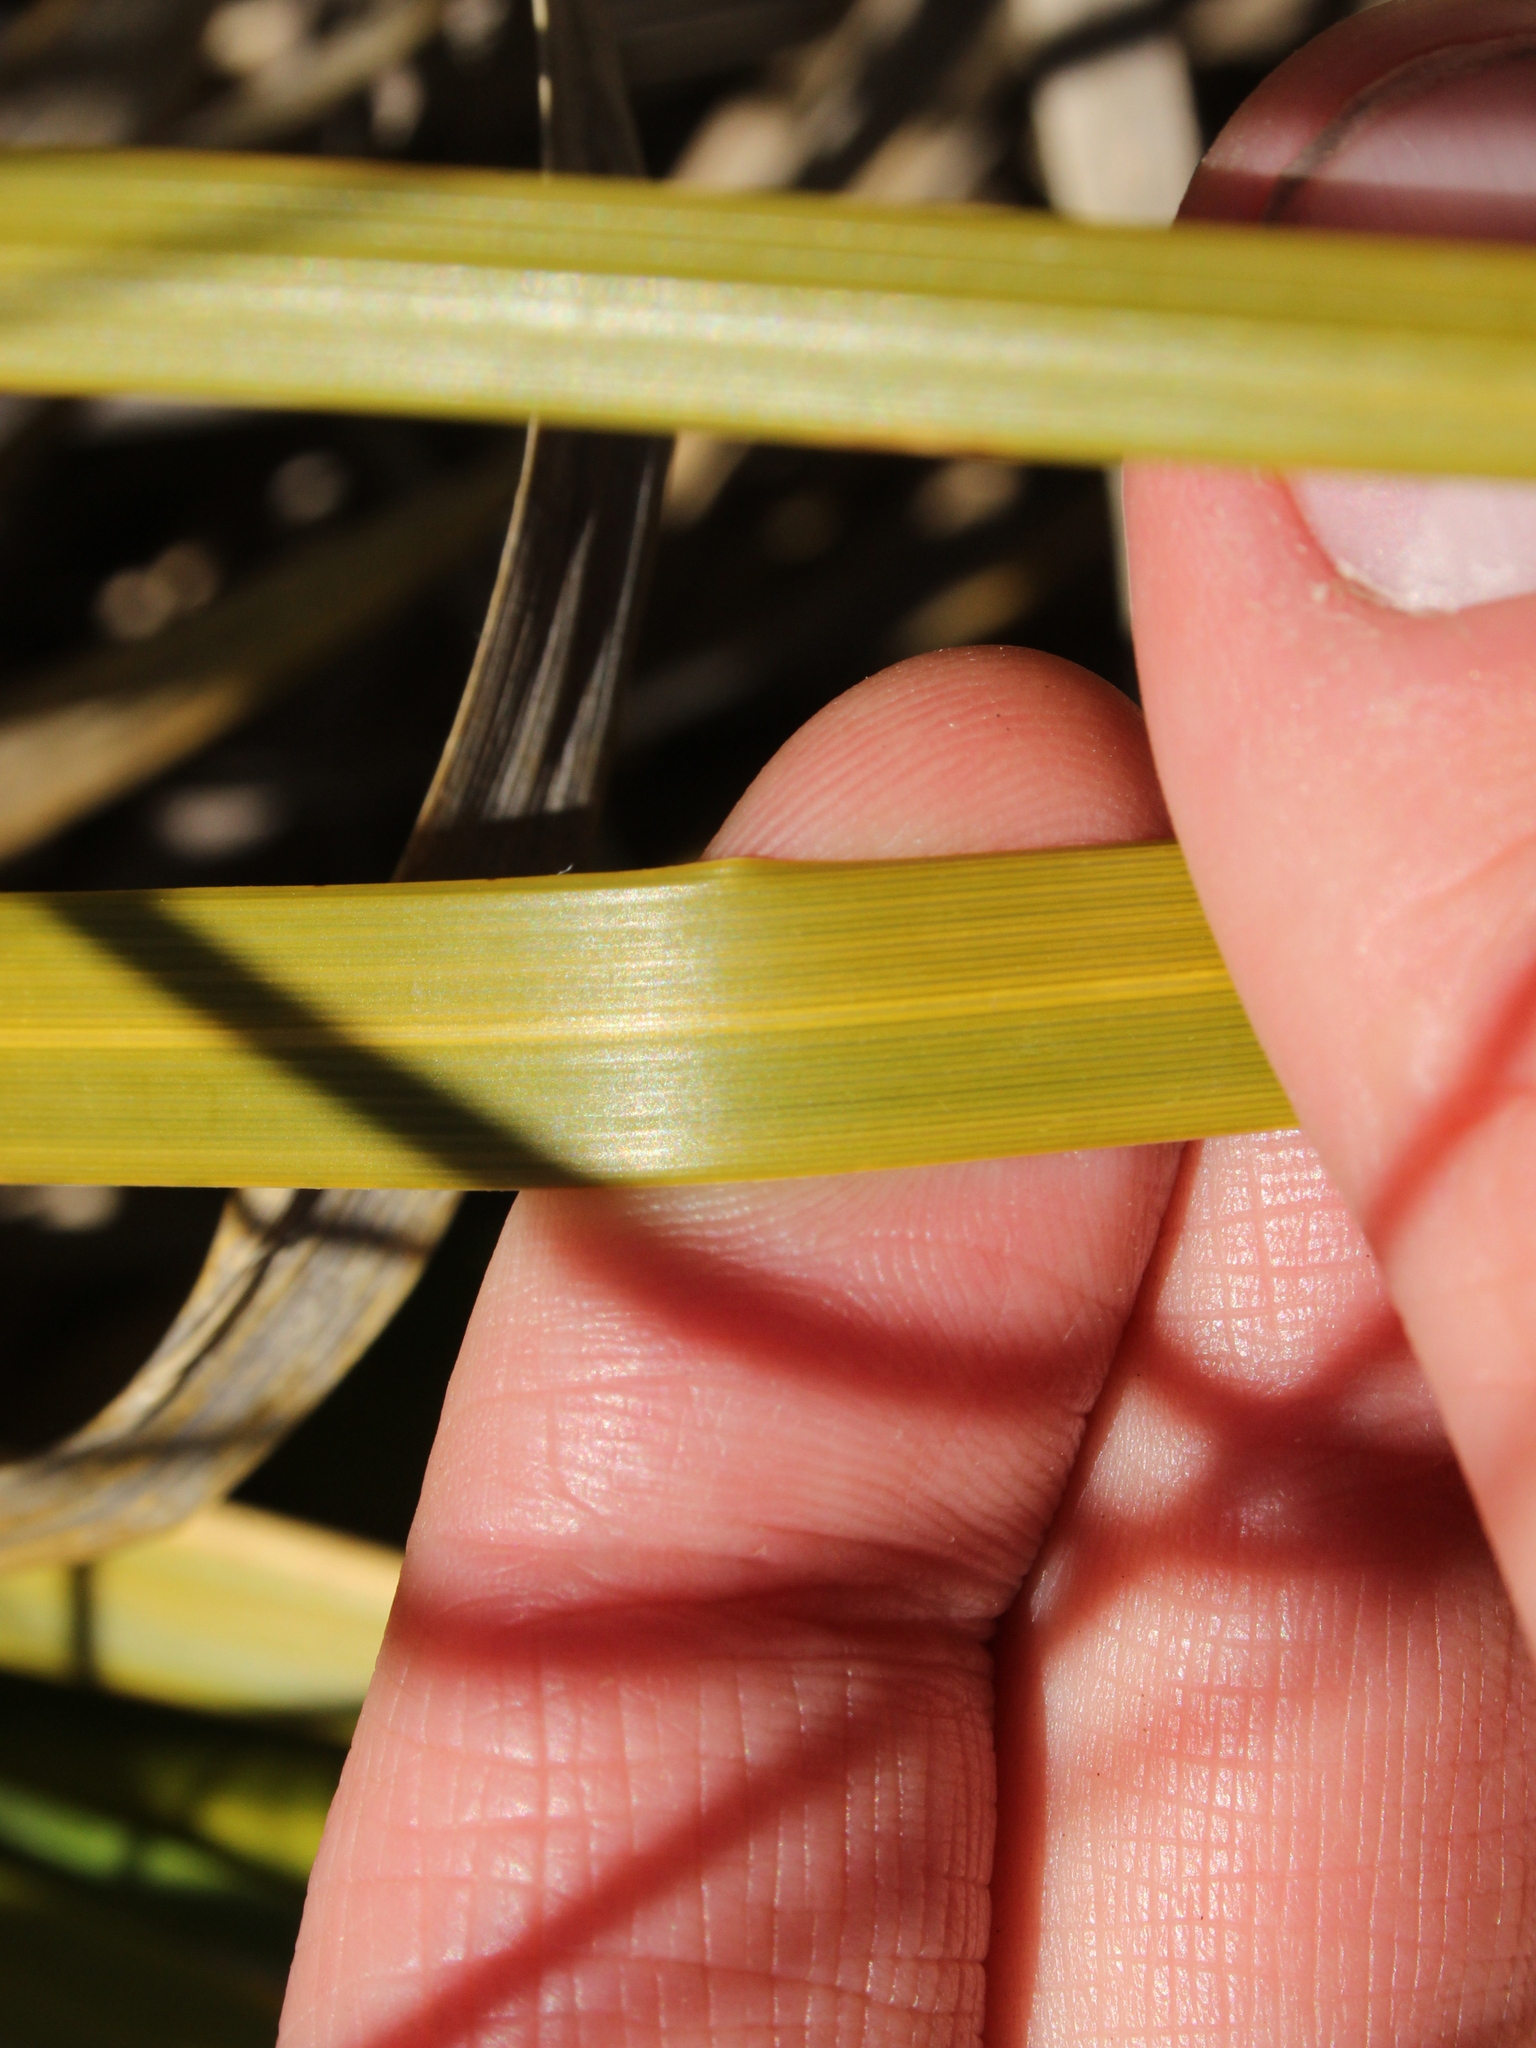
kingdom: Plantae
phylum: Tracheophyta
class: Liliopsida
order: Poales
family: Poaceae
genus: Chionochloa
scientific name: Chionochloa rigida
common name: Narrow leaved snow tussock
